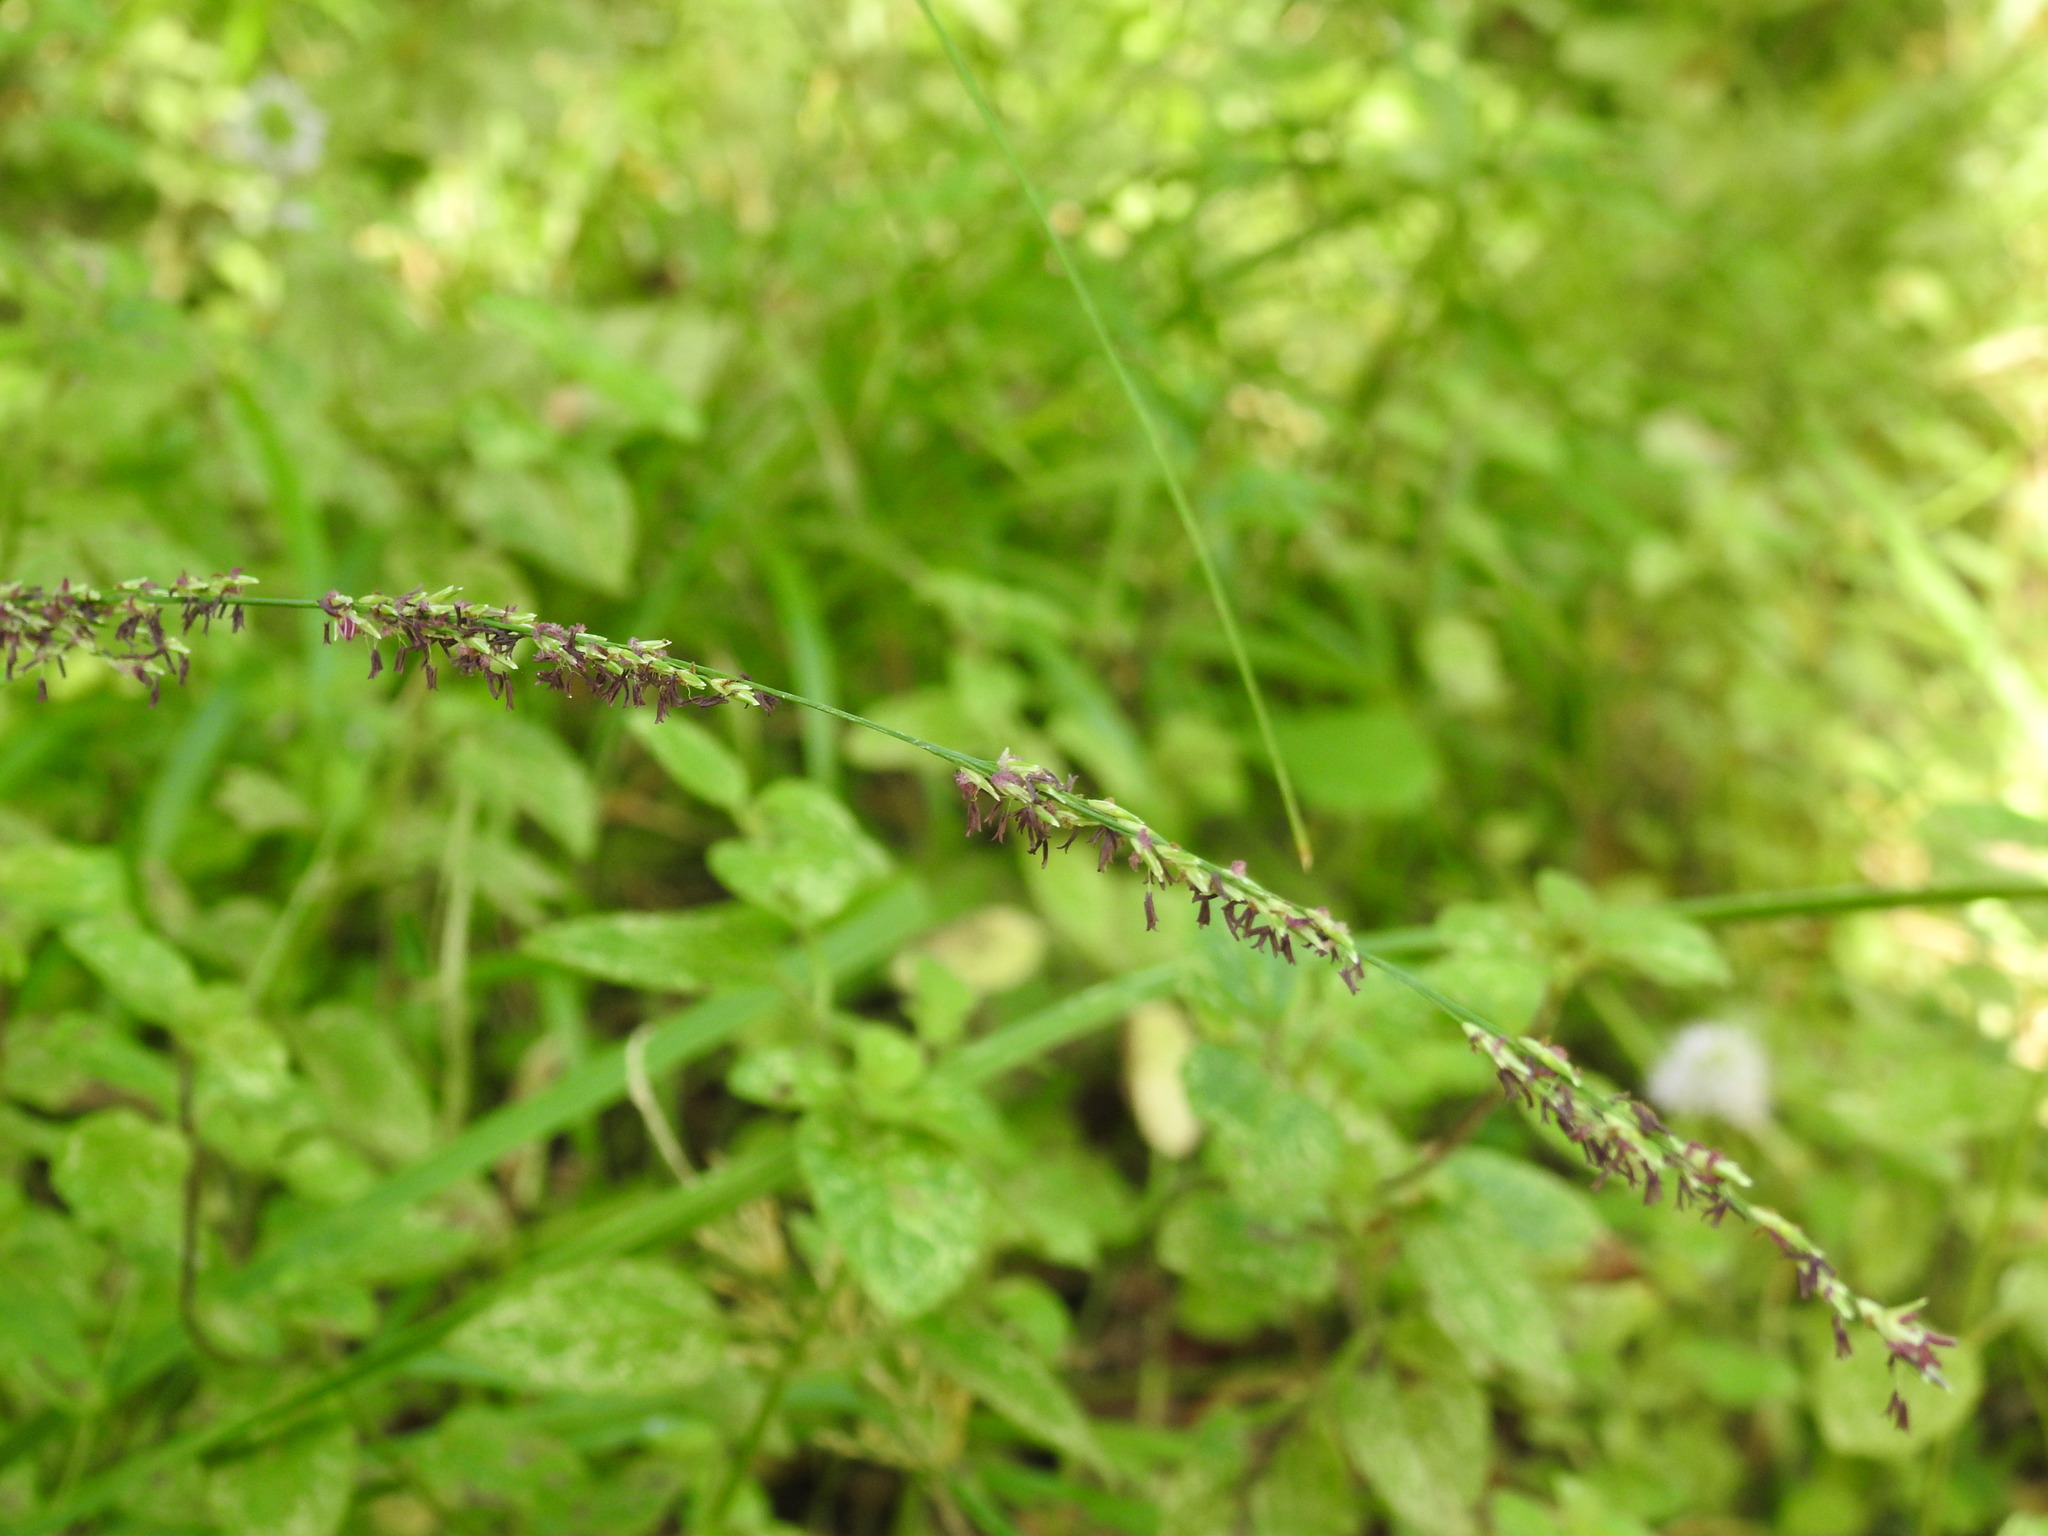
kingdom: Plantae
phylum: Tracheophyta
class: Liliopsida
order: Poales
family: Poaceae
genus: Molinia
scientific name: Molinia caerulea
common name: Purple moor-grass
